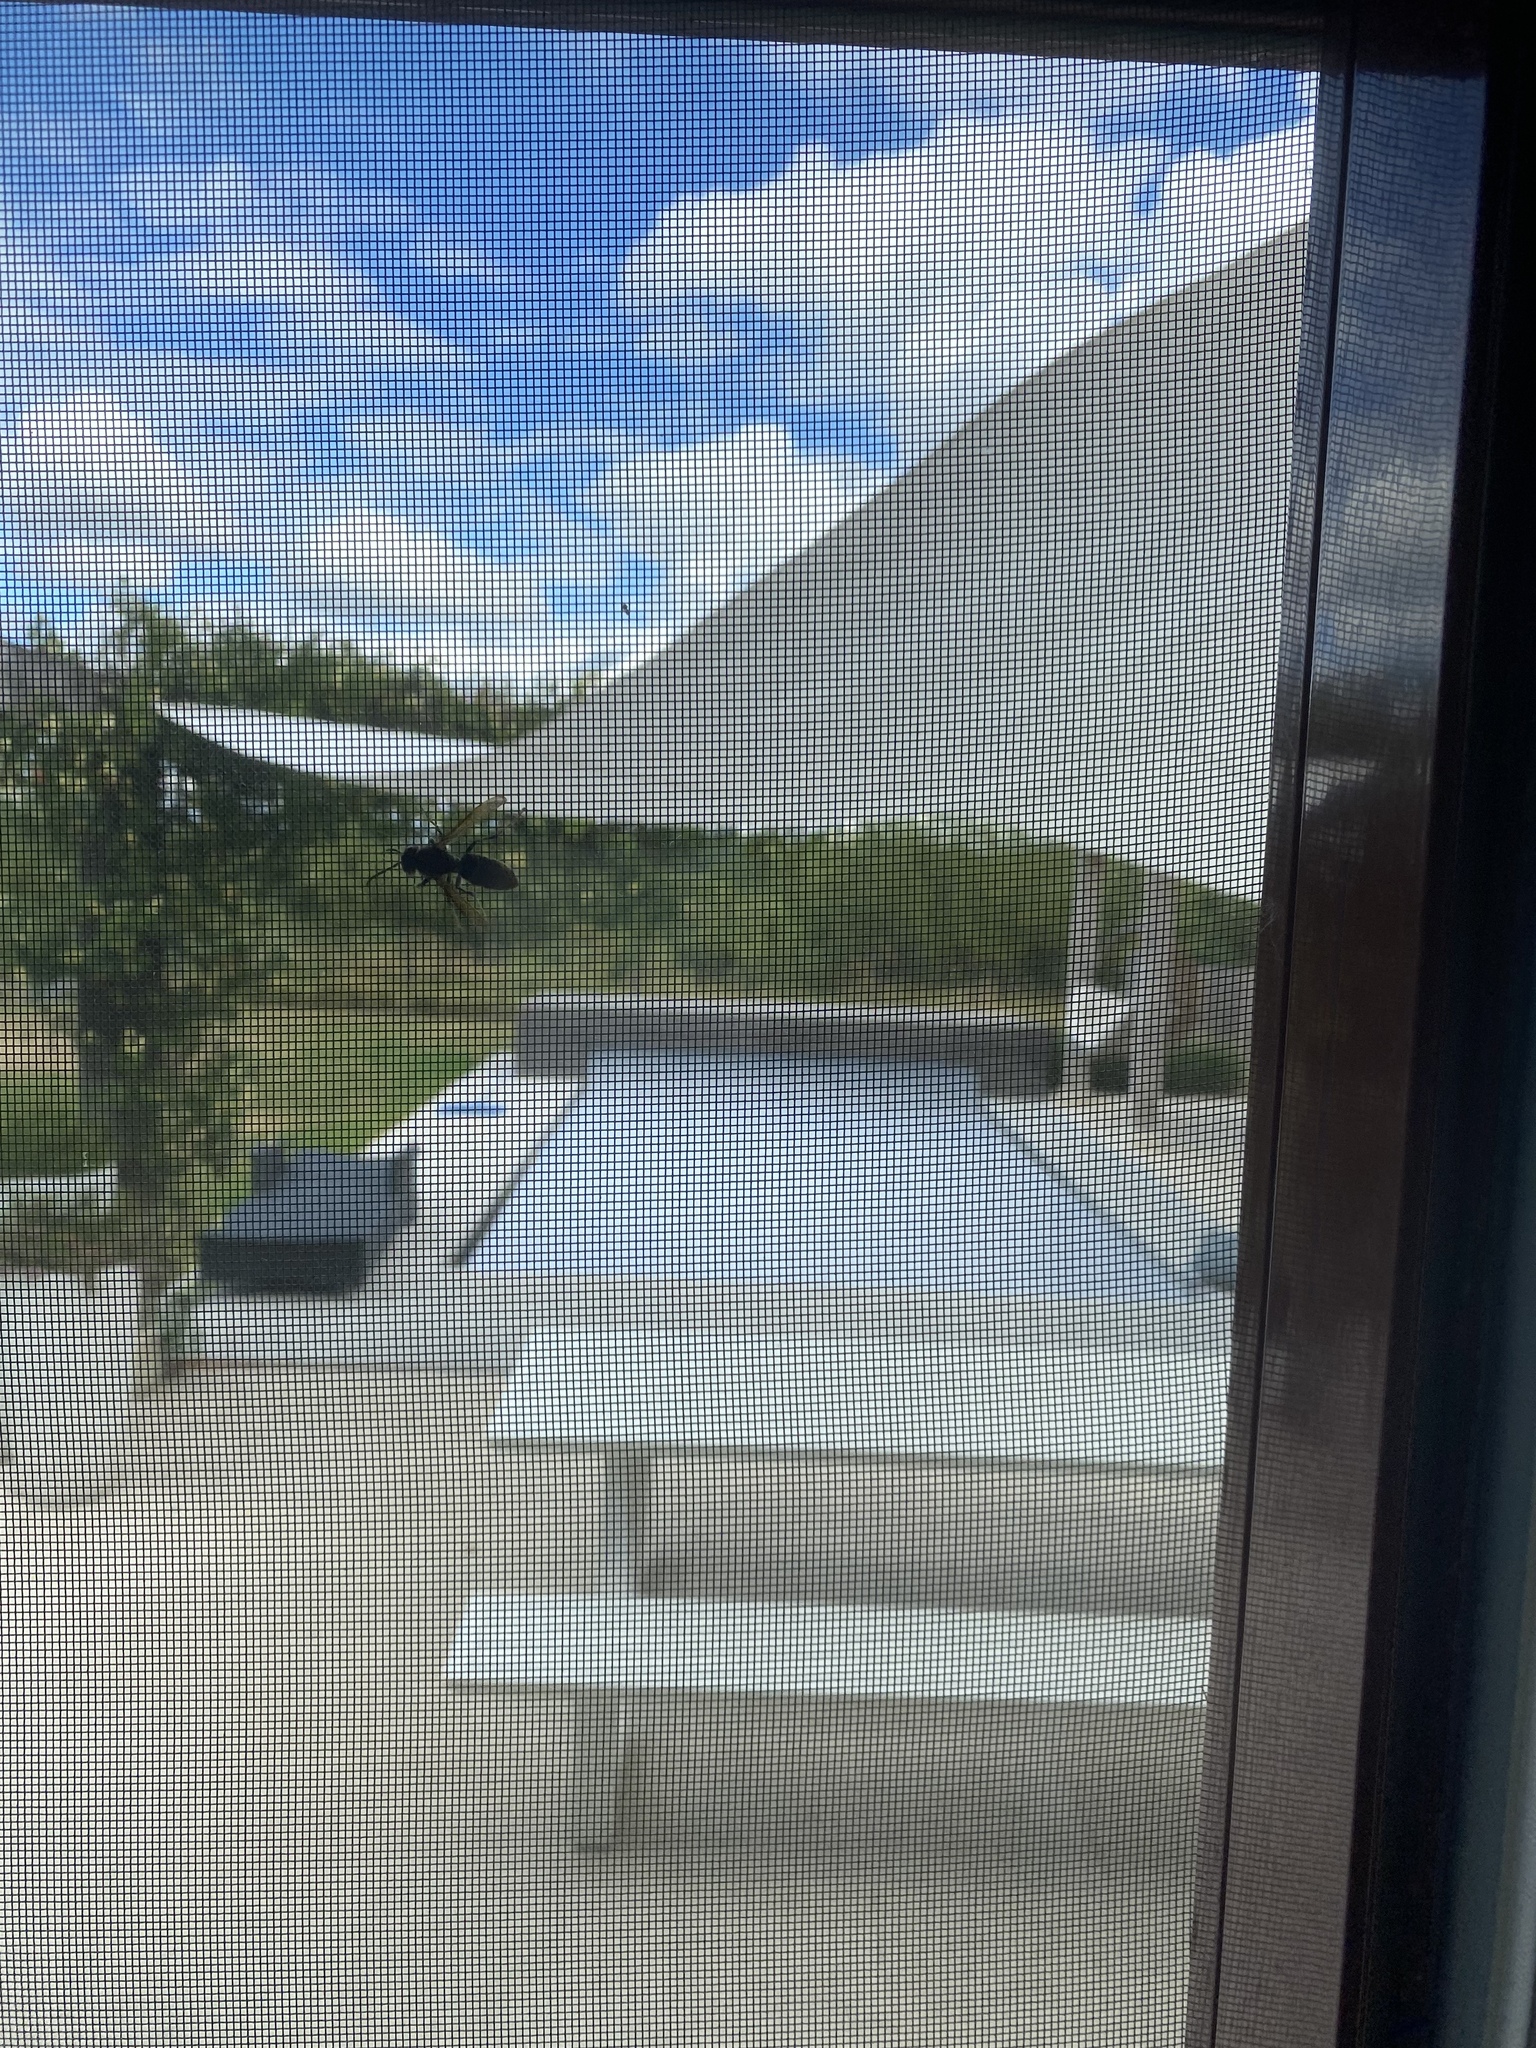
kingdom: Animalia
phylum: Arthropoda
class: Insecta
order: Hymenoptera
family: Vespidae
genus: Vespa
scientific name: Vespa velutina
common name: Asian hornet
